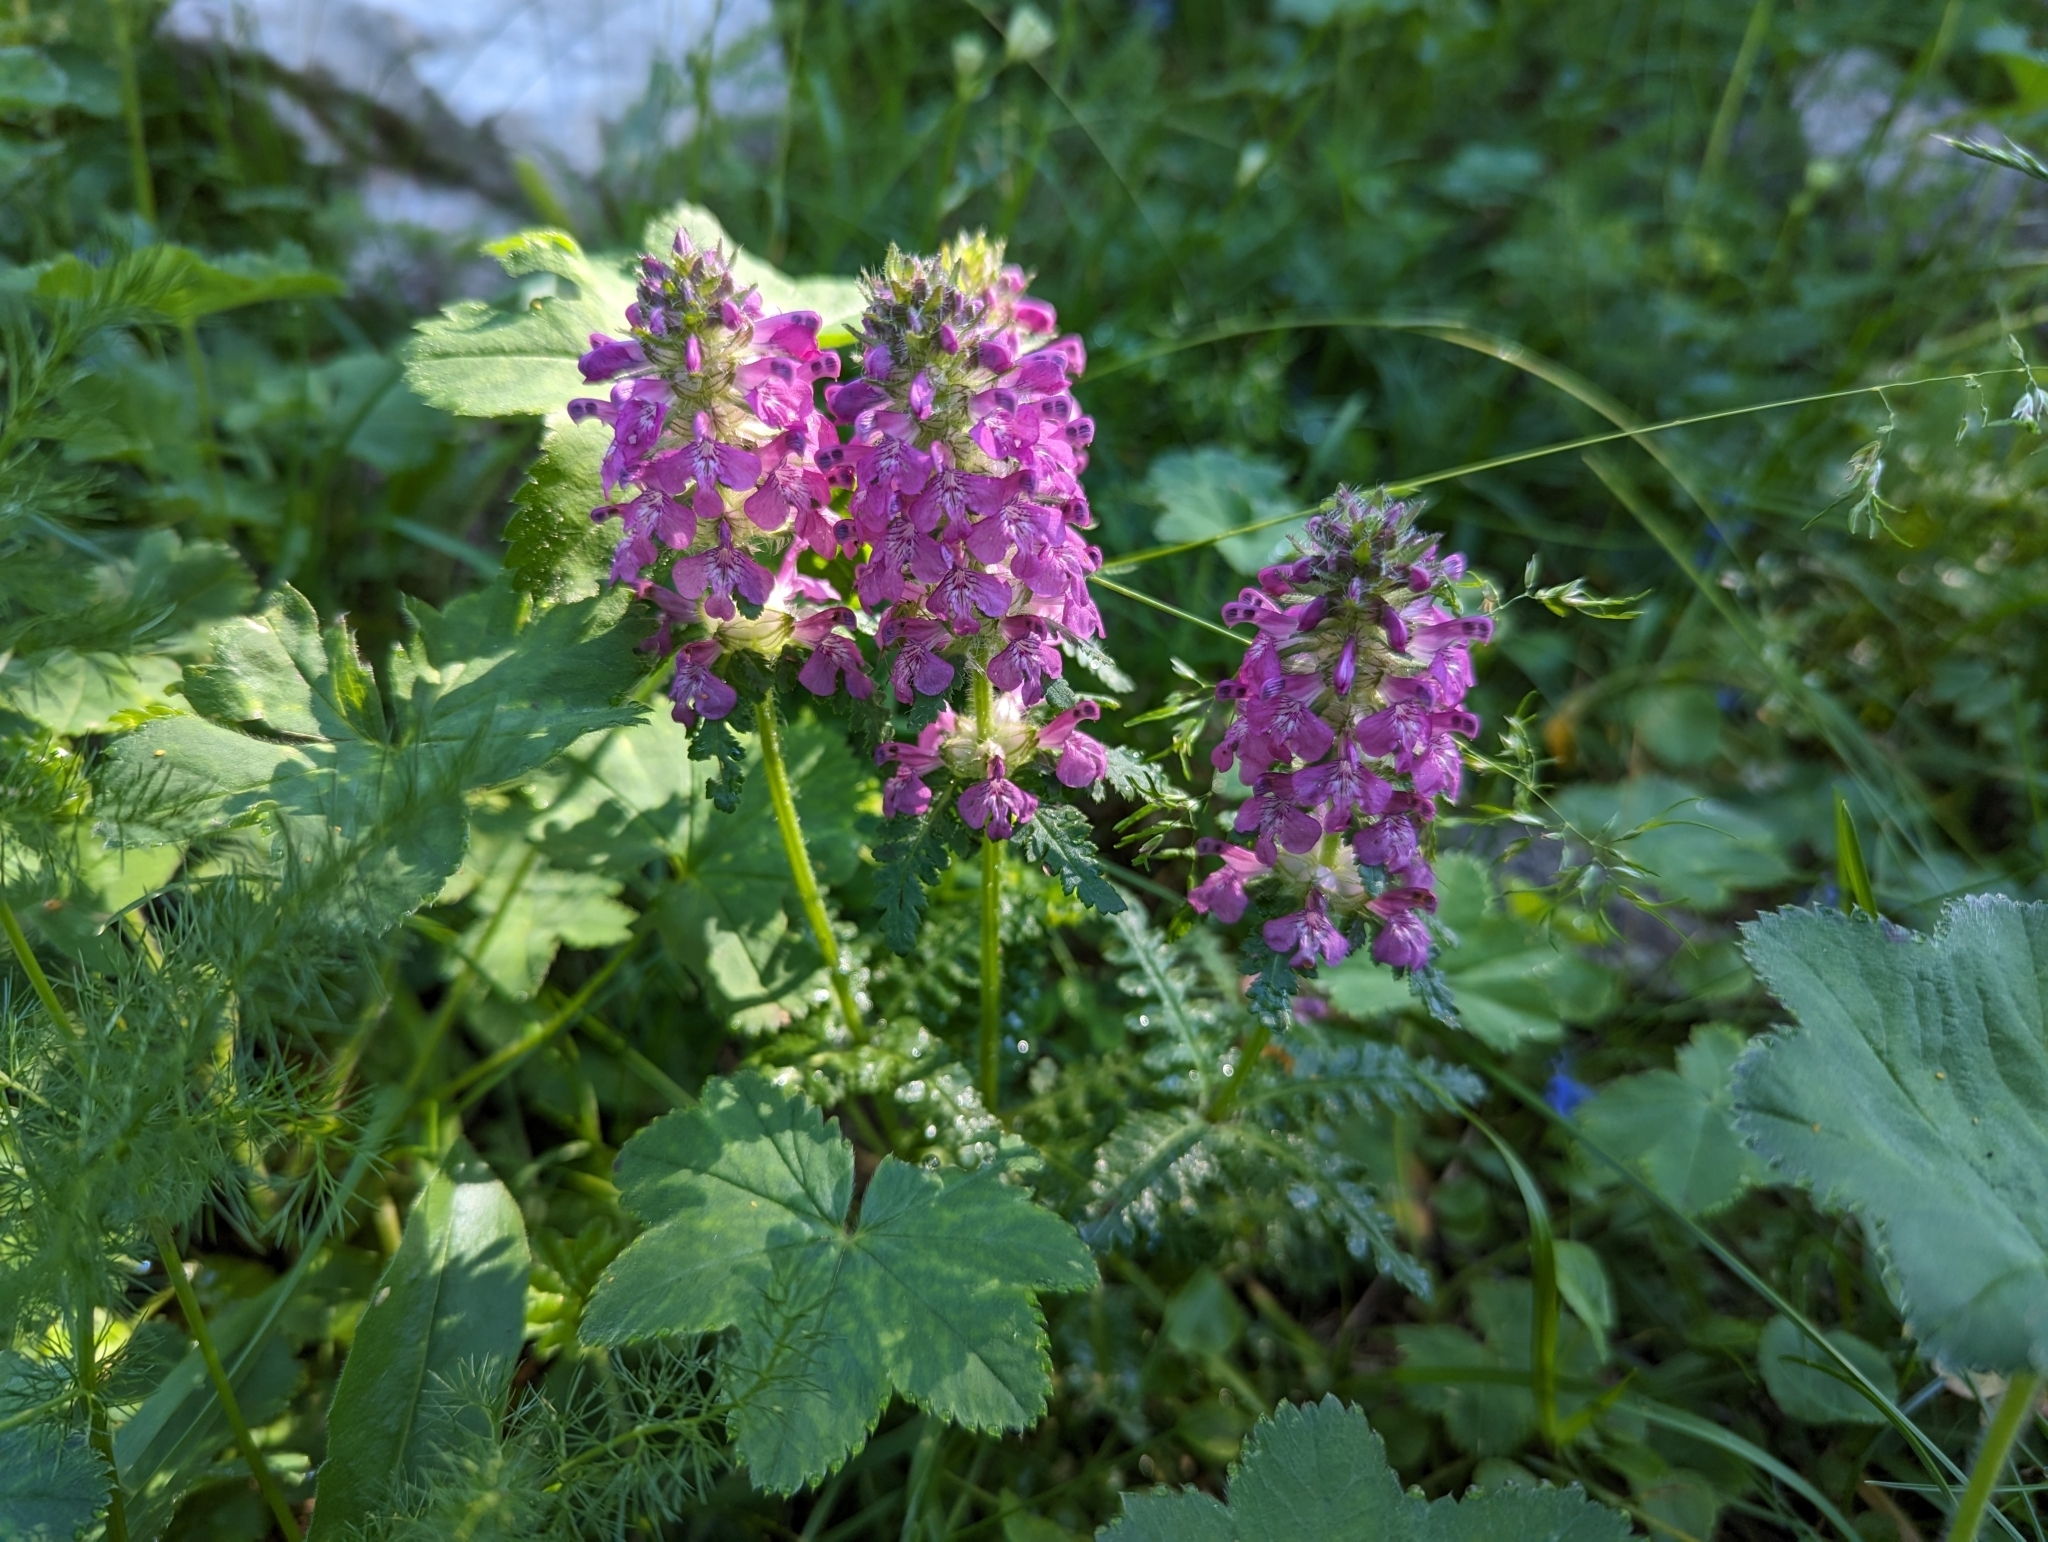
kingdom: Plantae
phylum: Tracheophyta
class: Magnoliopsida
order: Lamiales
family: Orobanchaceae
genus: Pedicularis
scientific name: Pedicularis verticillata
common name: Whorled lousewort
